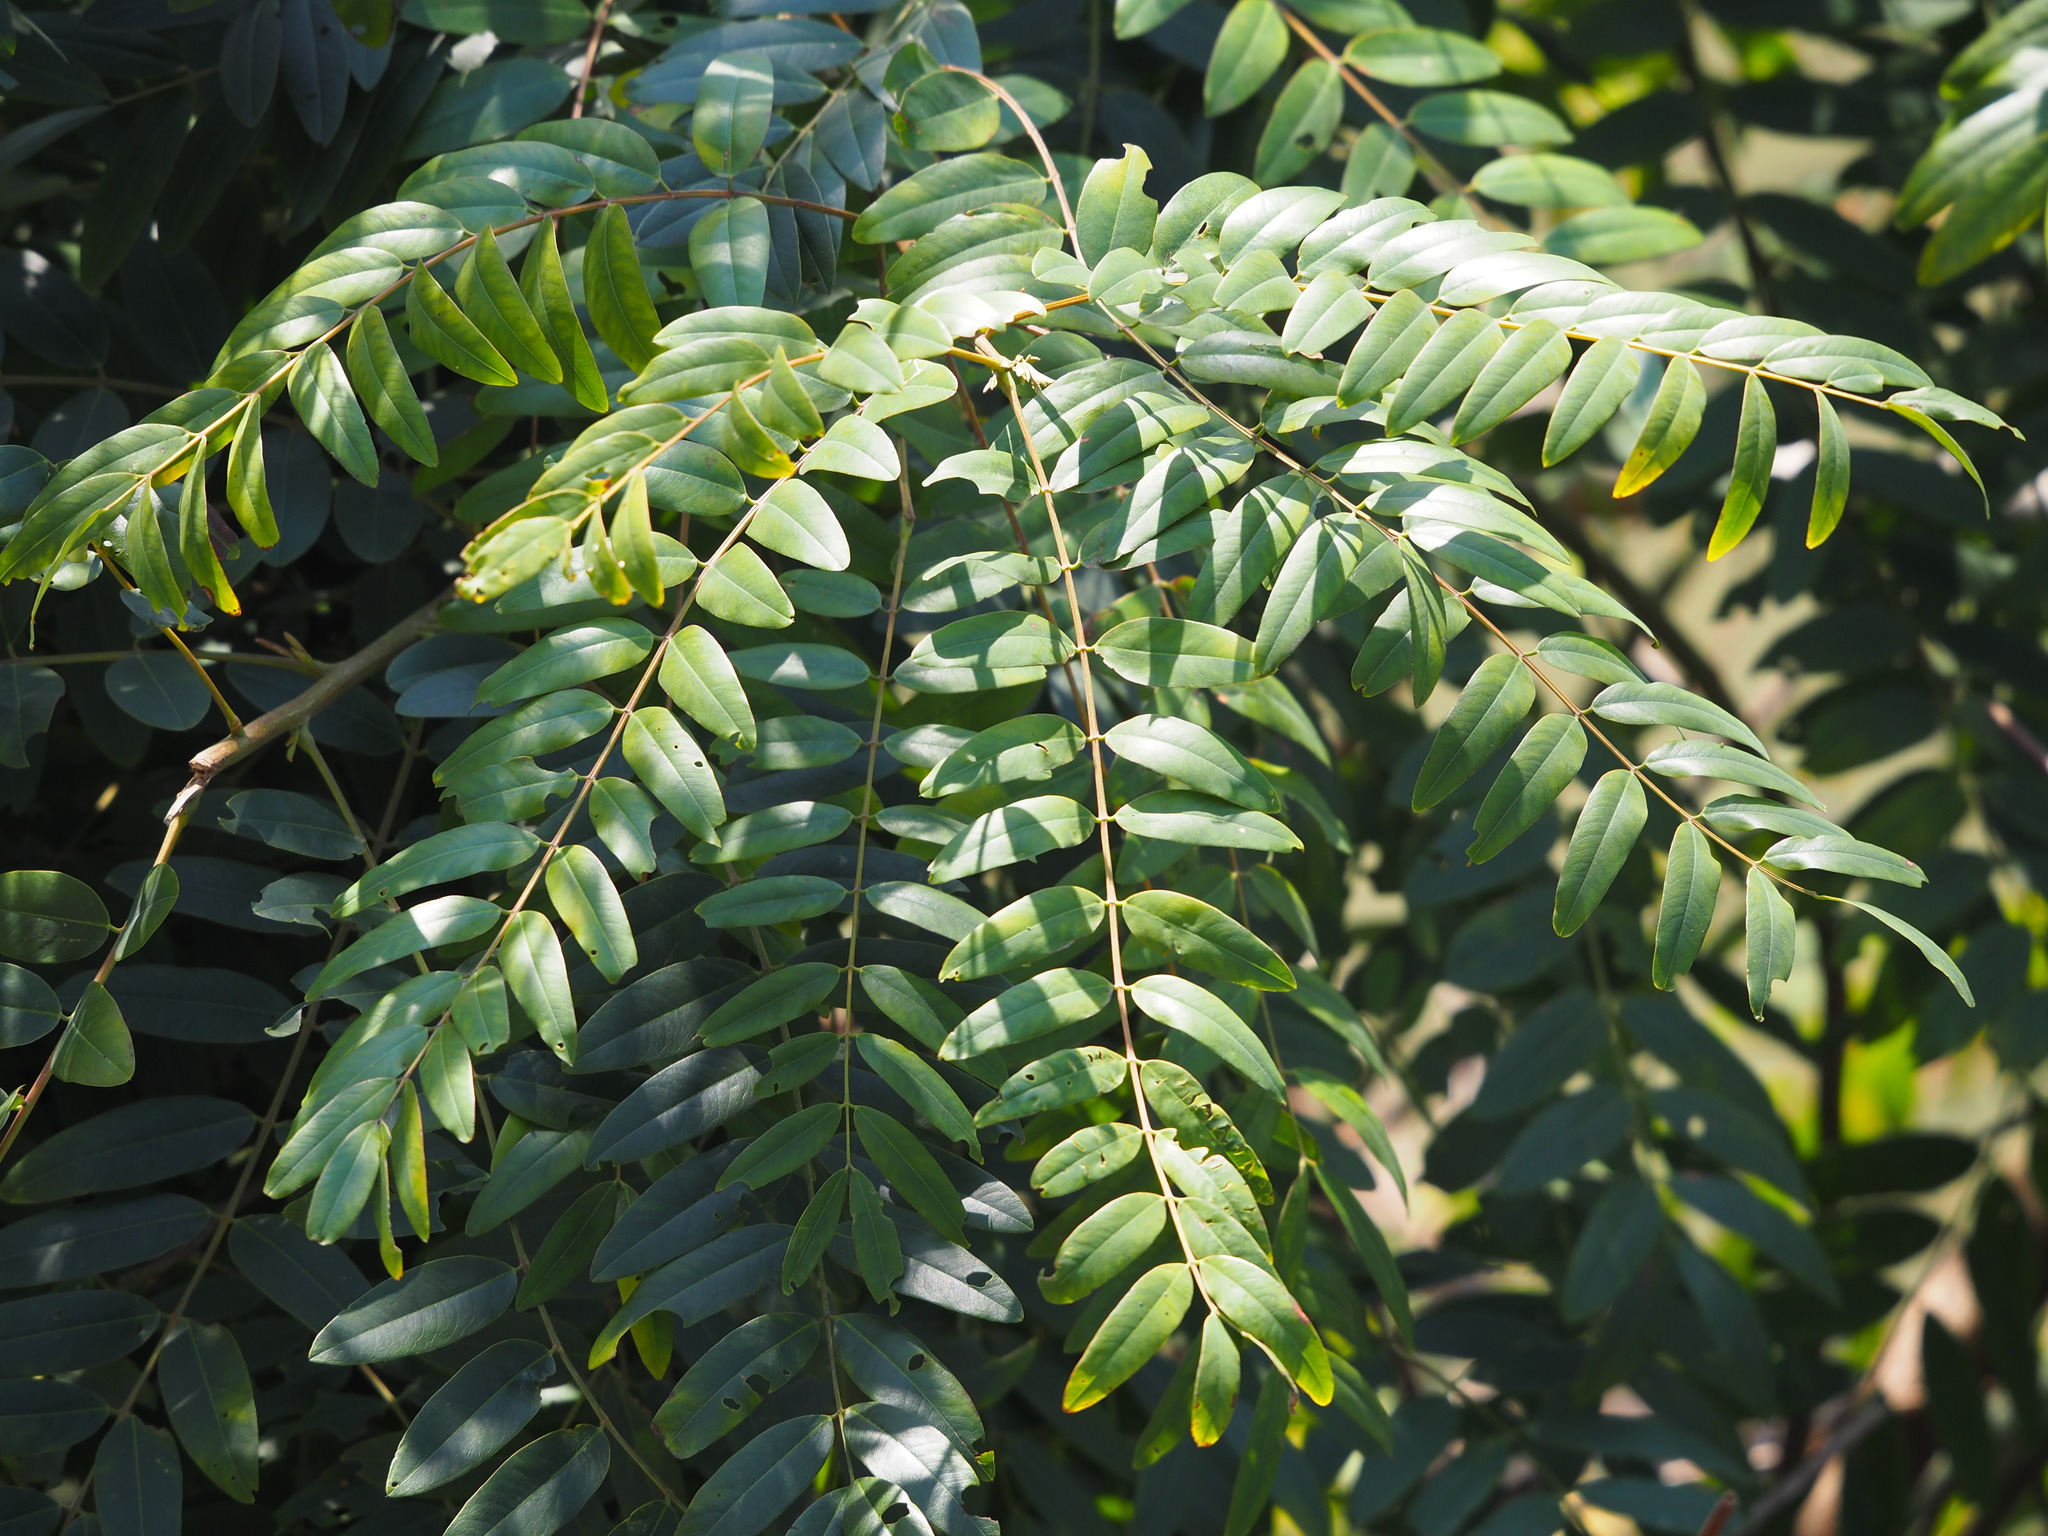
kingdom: Plantae
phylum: Tracheophyta
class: Magnoliopsida
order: Fabales
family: Fabaceae
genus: Senna
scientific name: Senna siamea
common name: Siamese cassia
